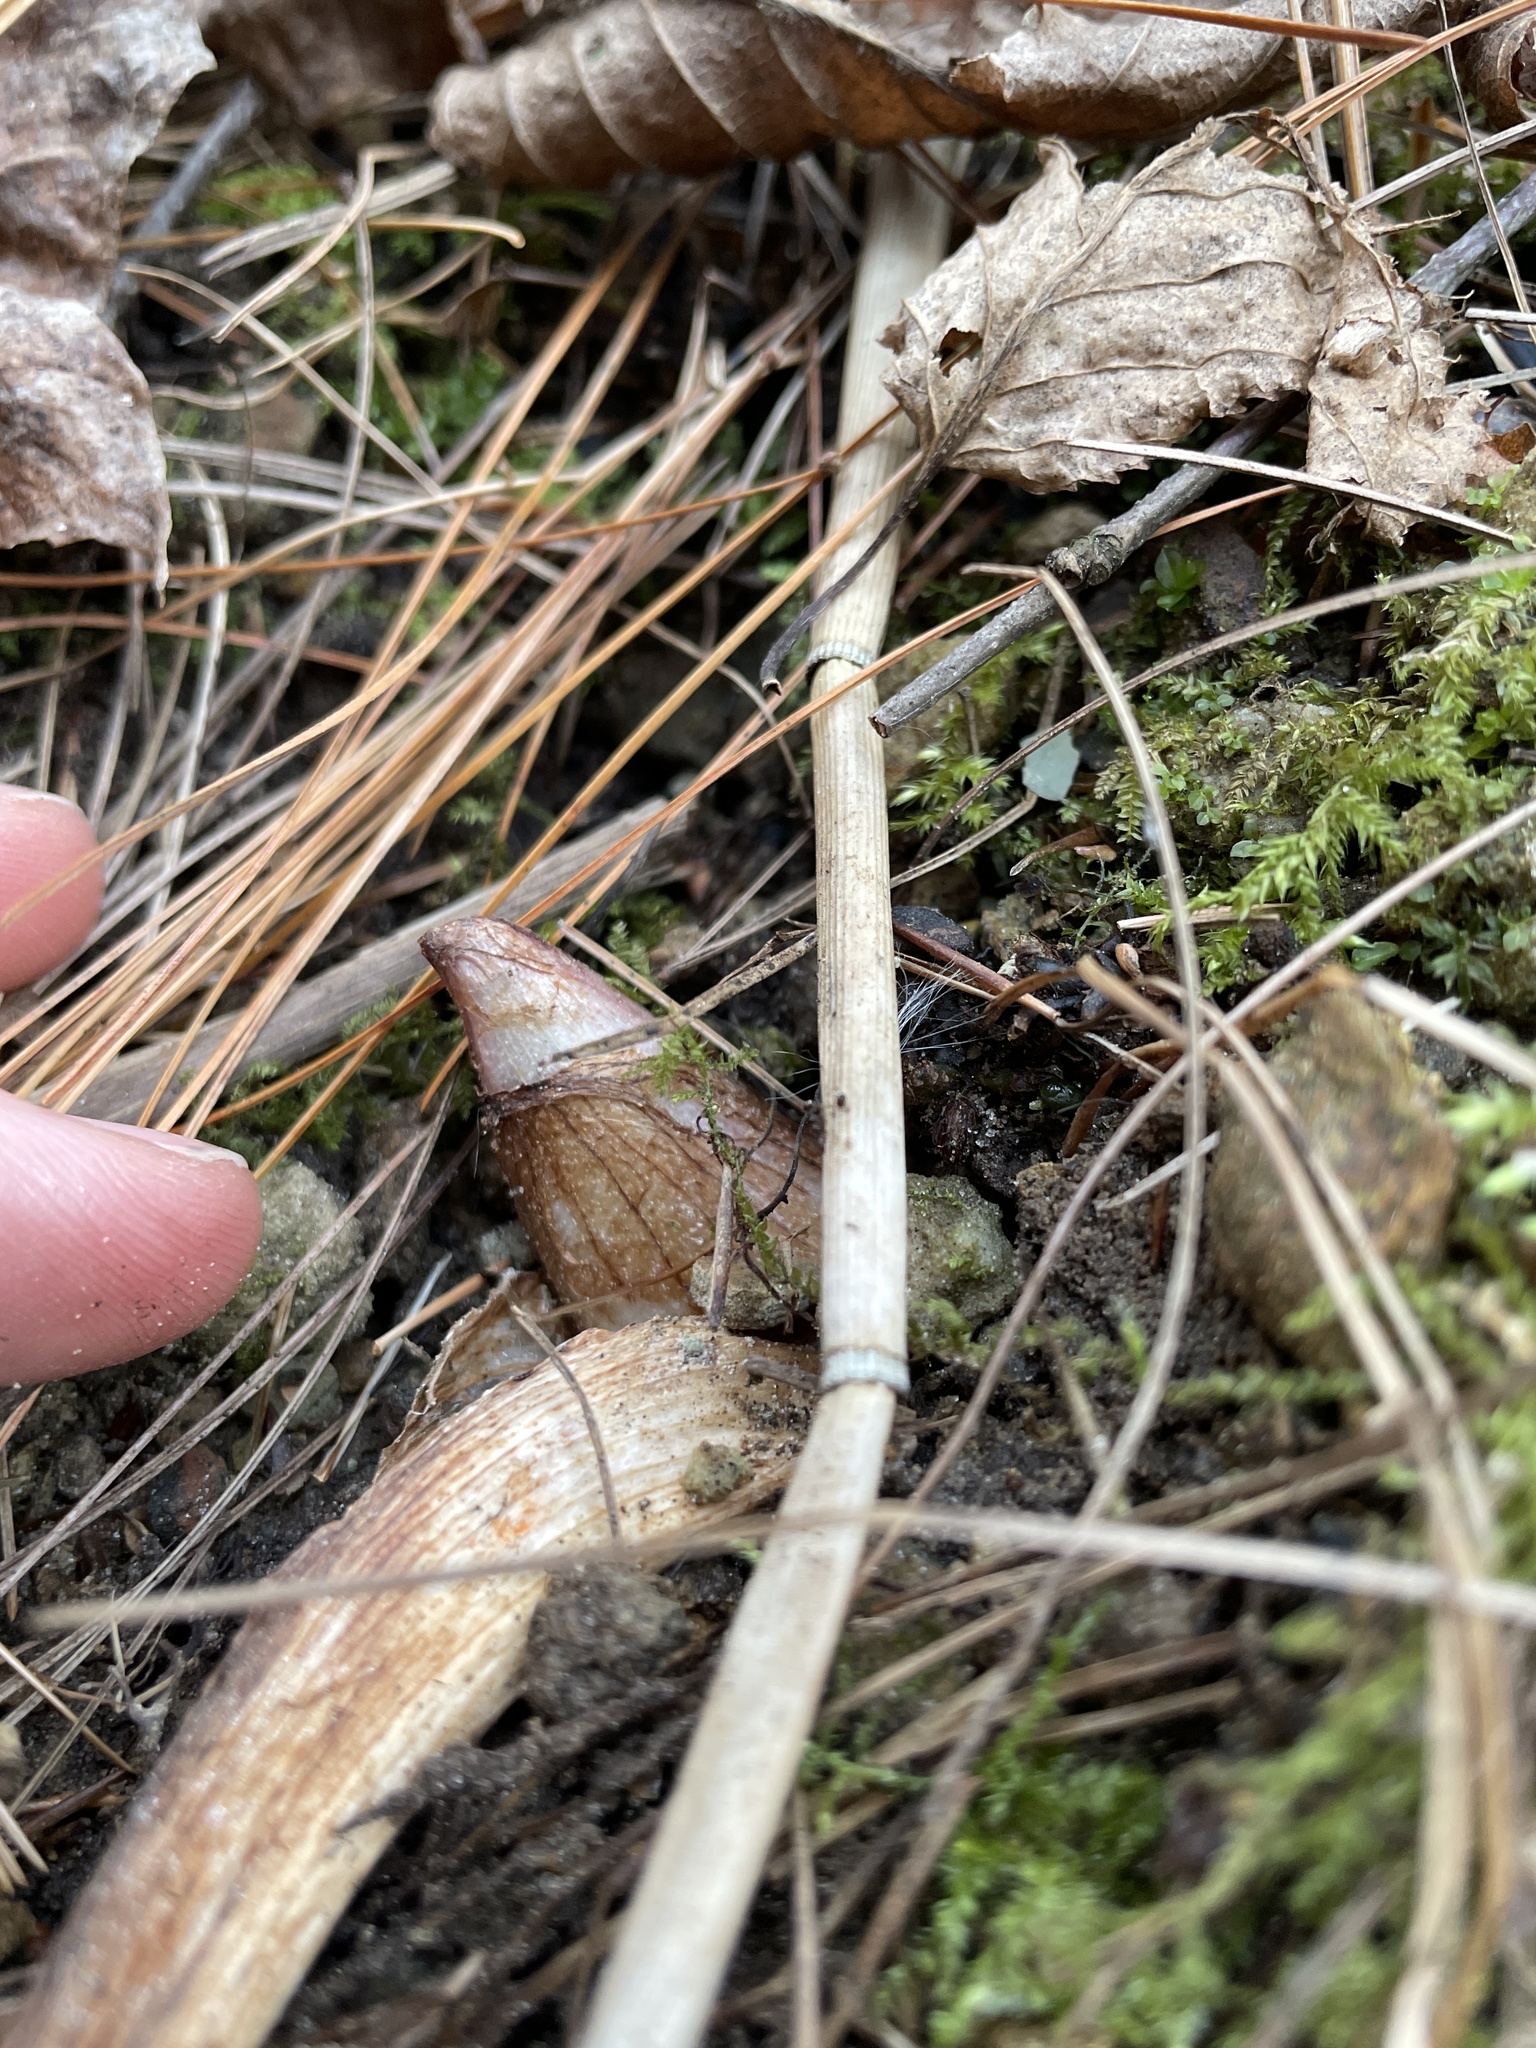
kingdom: Plantae
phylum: Tracheophyta
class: Liliopsida
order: Alismatales
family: Araceae
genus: Arisaema
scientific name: Arisaema triphyllum
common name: Jack-in-the-pulpit
